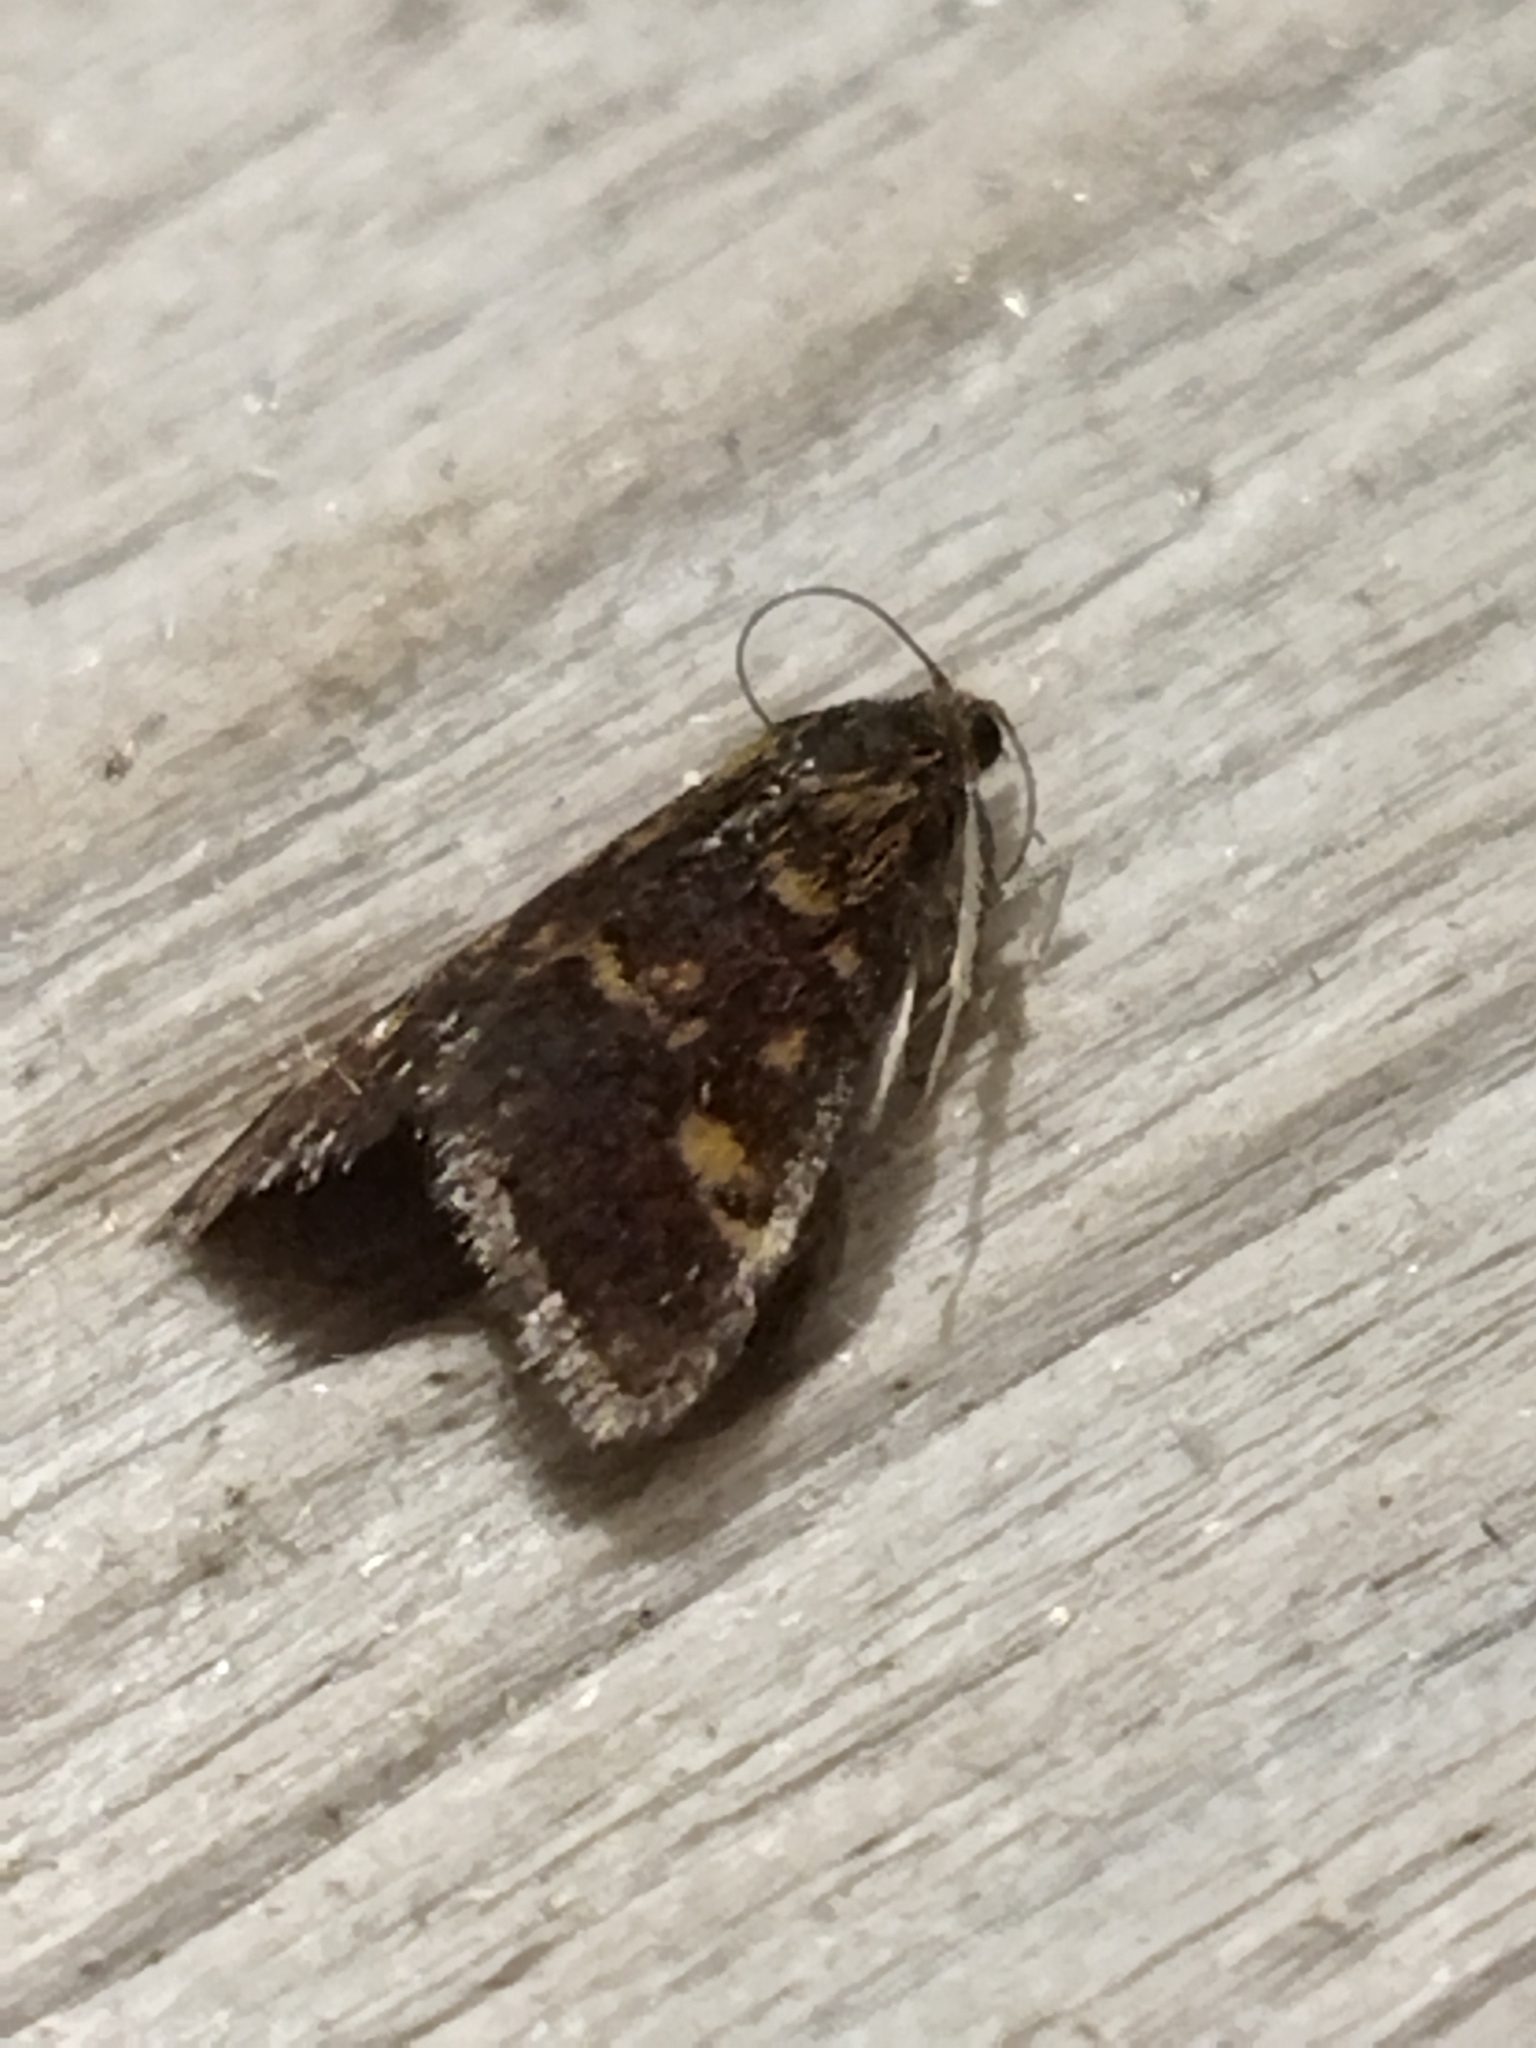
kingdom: Animalia
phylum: Arthropoda
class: Insecta
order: Lepidoptera
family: Crambidae
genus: Pyrausta
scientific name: Pyrausta aurata
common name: Small purple & gold
